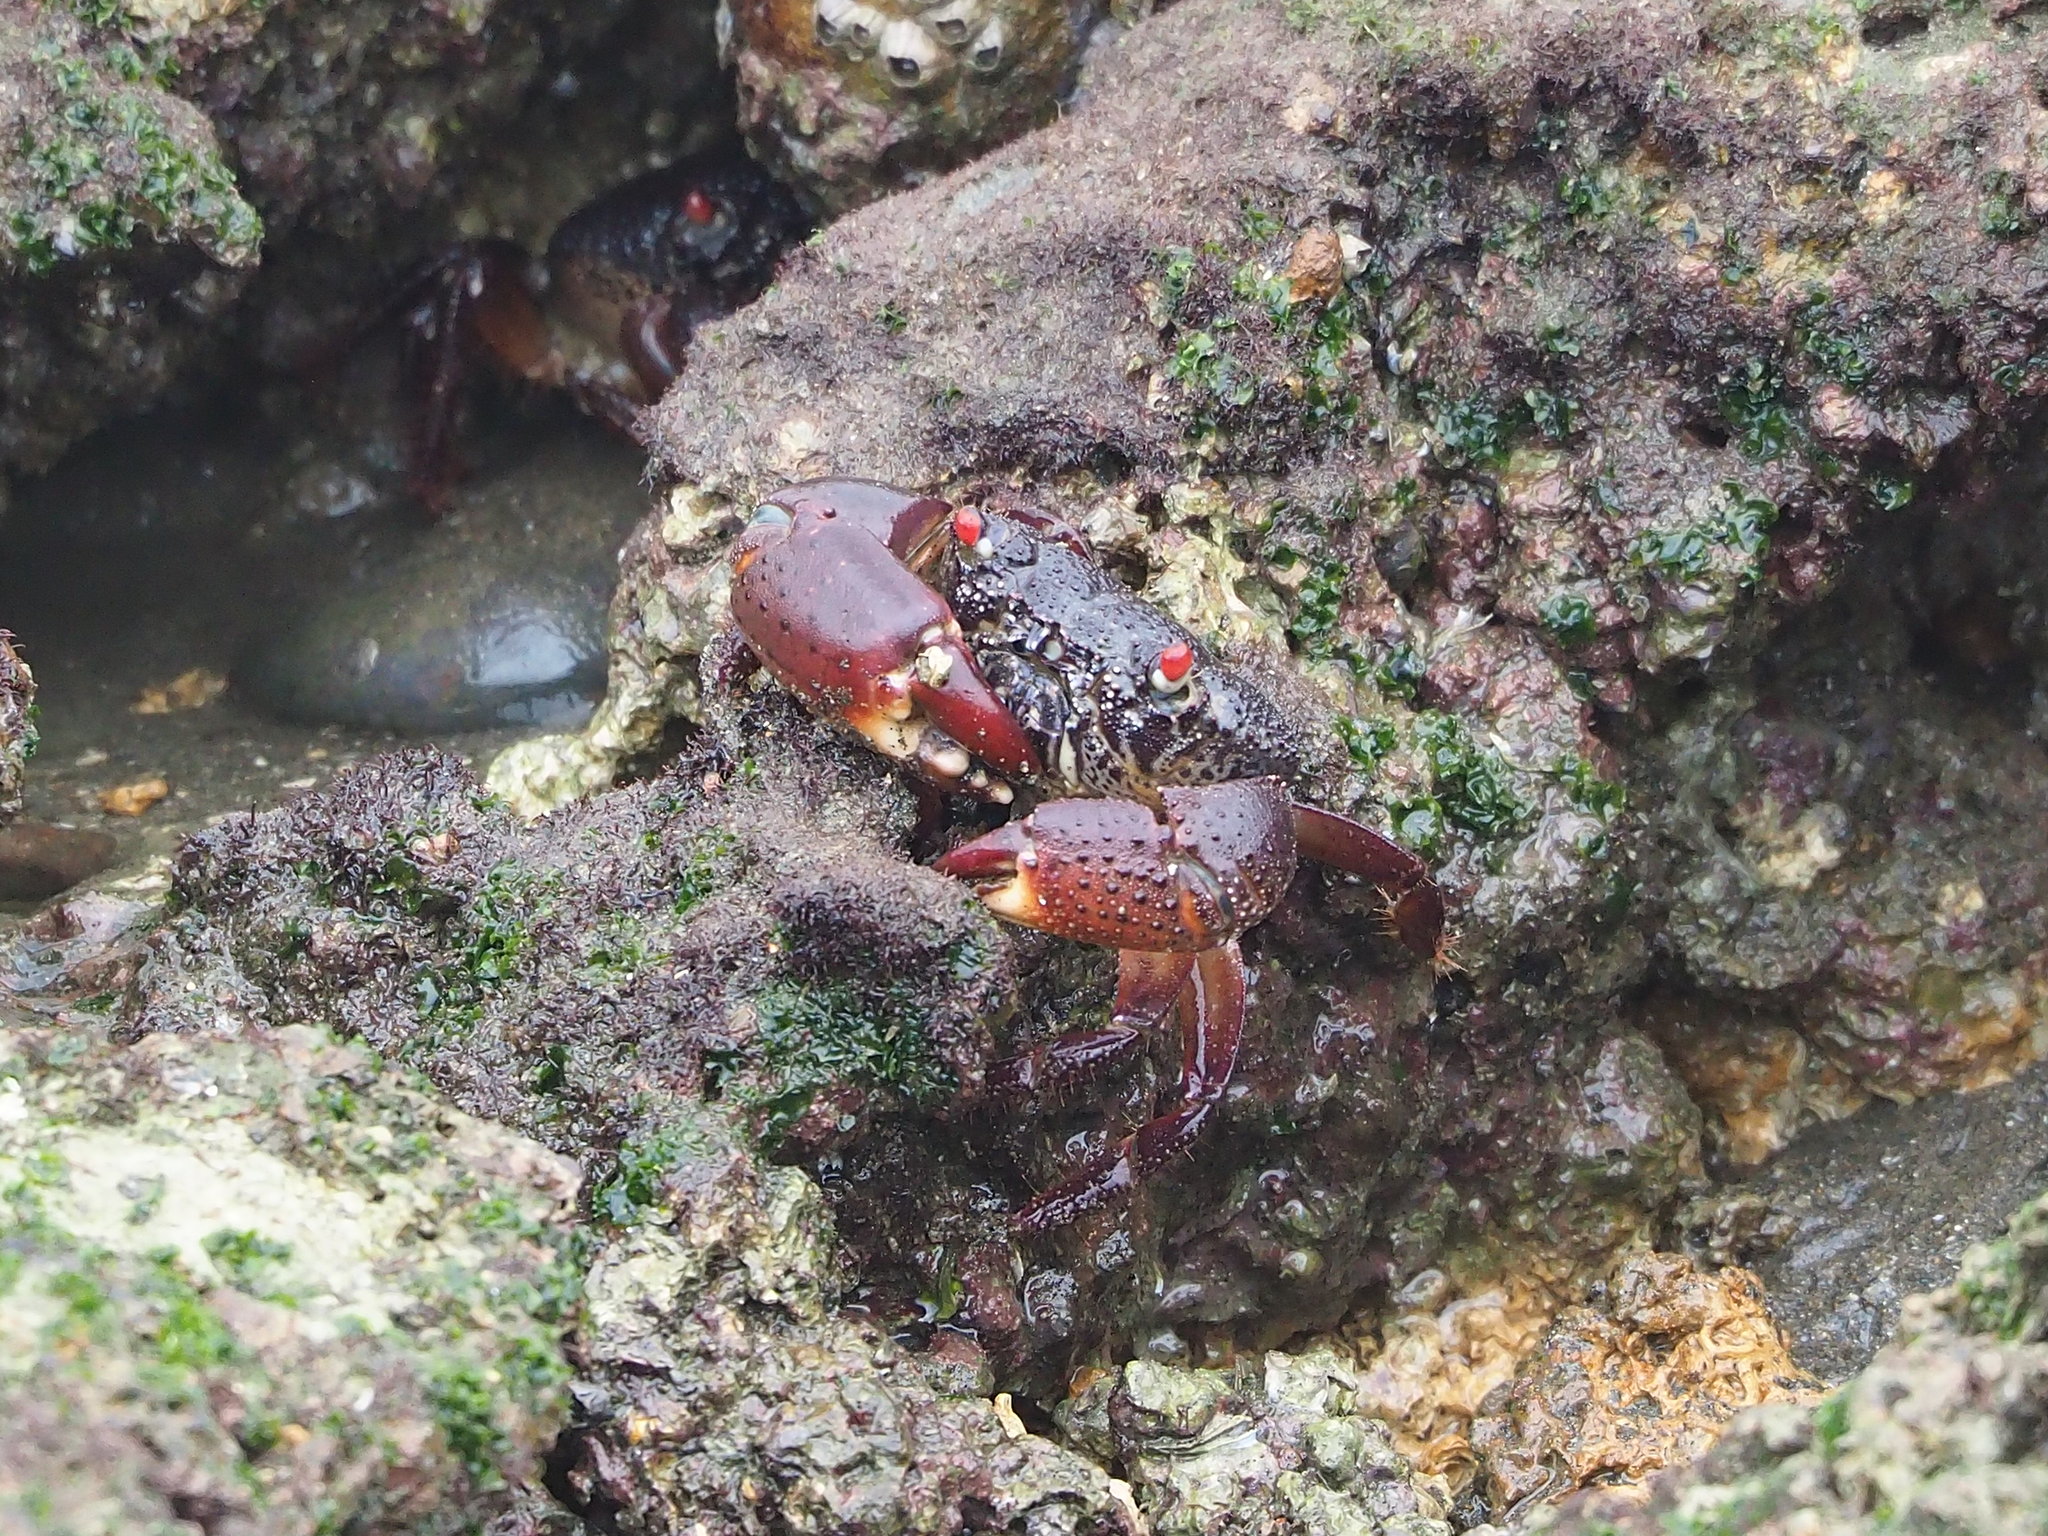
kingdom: Animalia
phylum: Arthropoda
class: Malacostraca
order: Decapoda
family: Eriphiidae
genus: Eriphia
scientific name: Eriphia ferox
